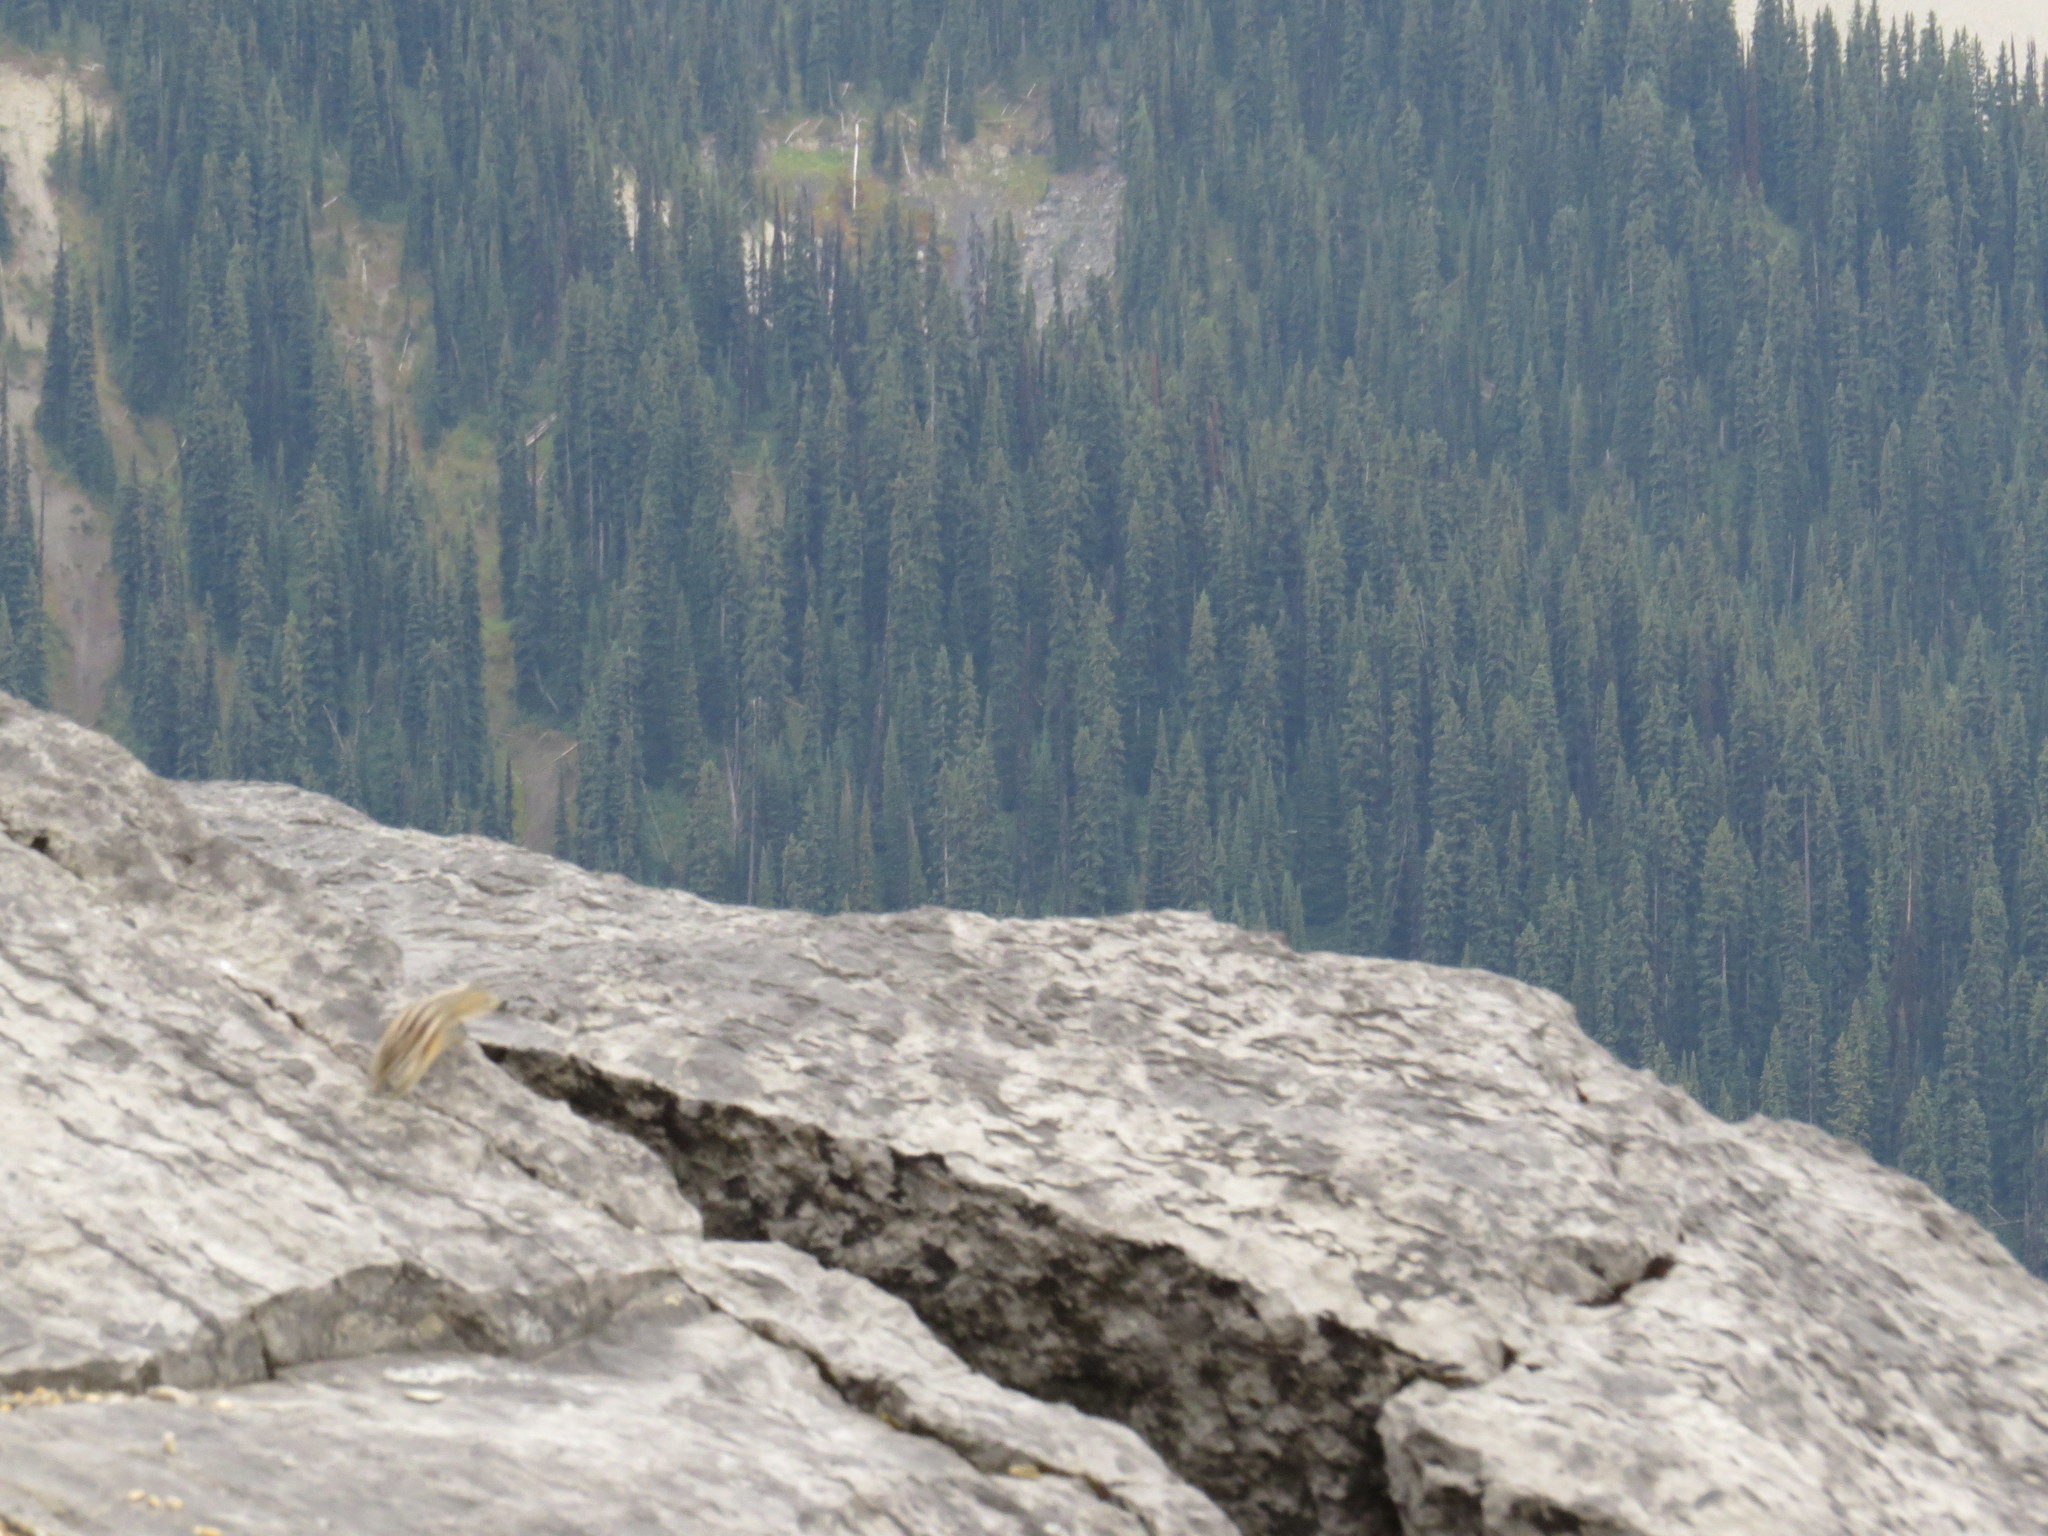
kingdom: Animalia
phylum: Chordata
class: Mammalia
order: Rodentia
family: Sciuridae
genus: Tamias
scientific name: Tamias minimus
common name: Least chipmunk
